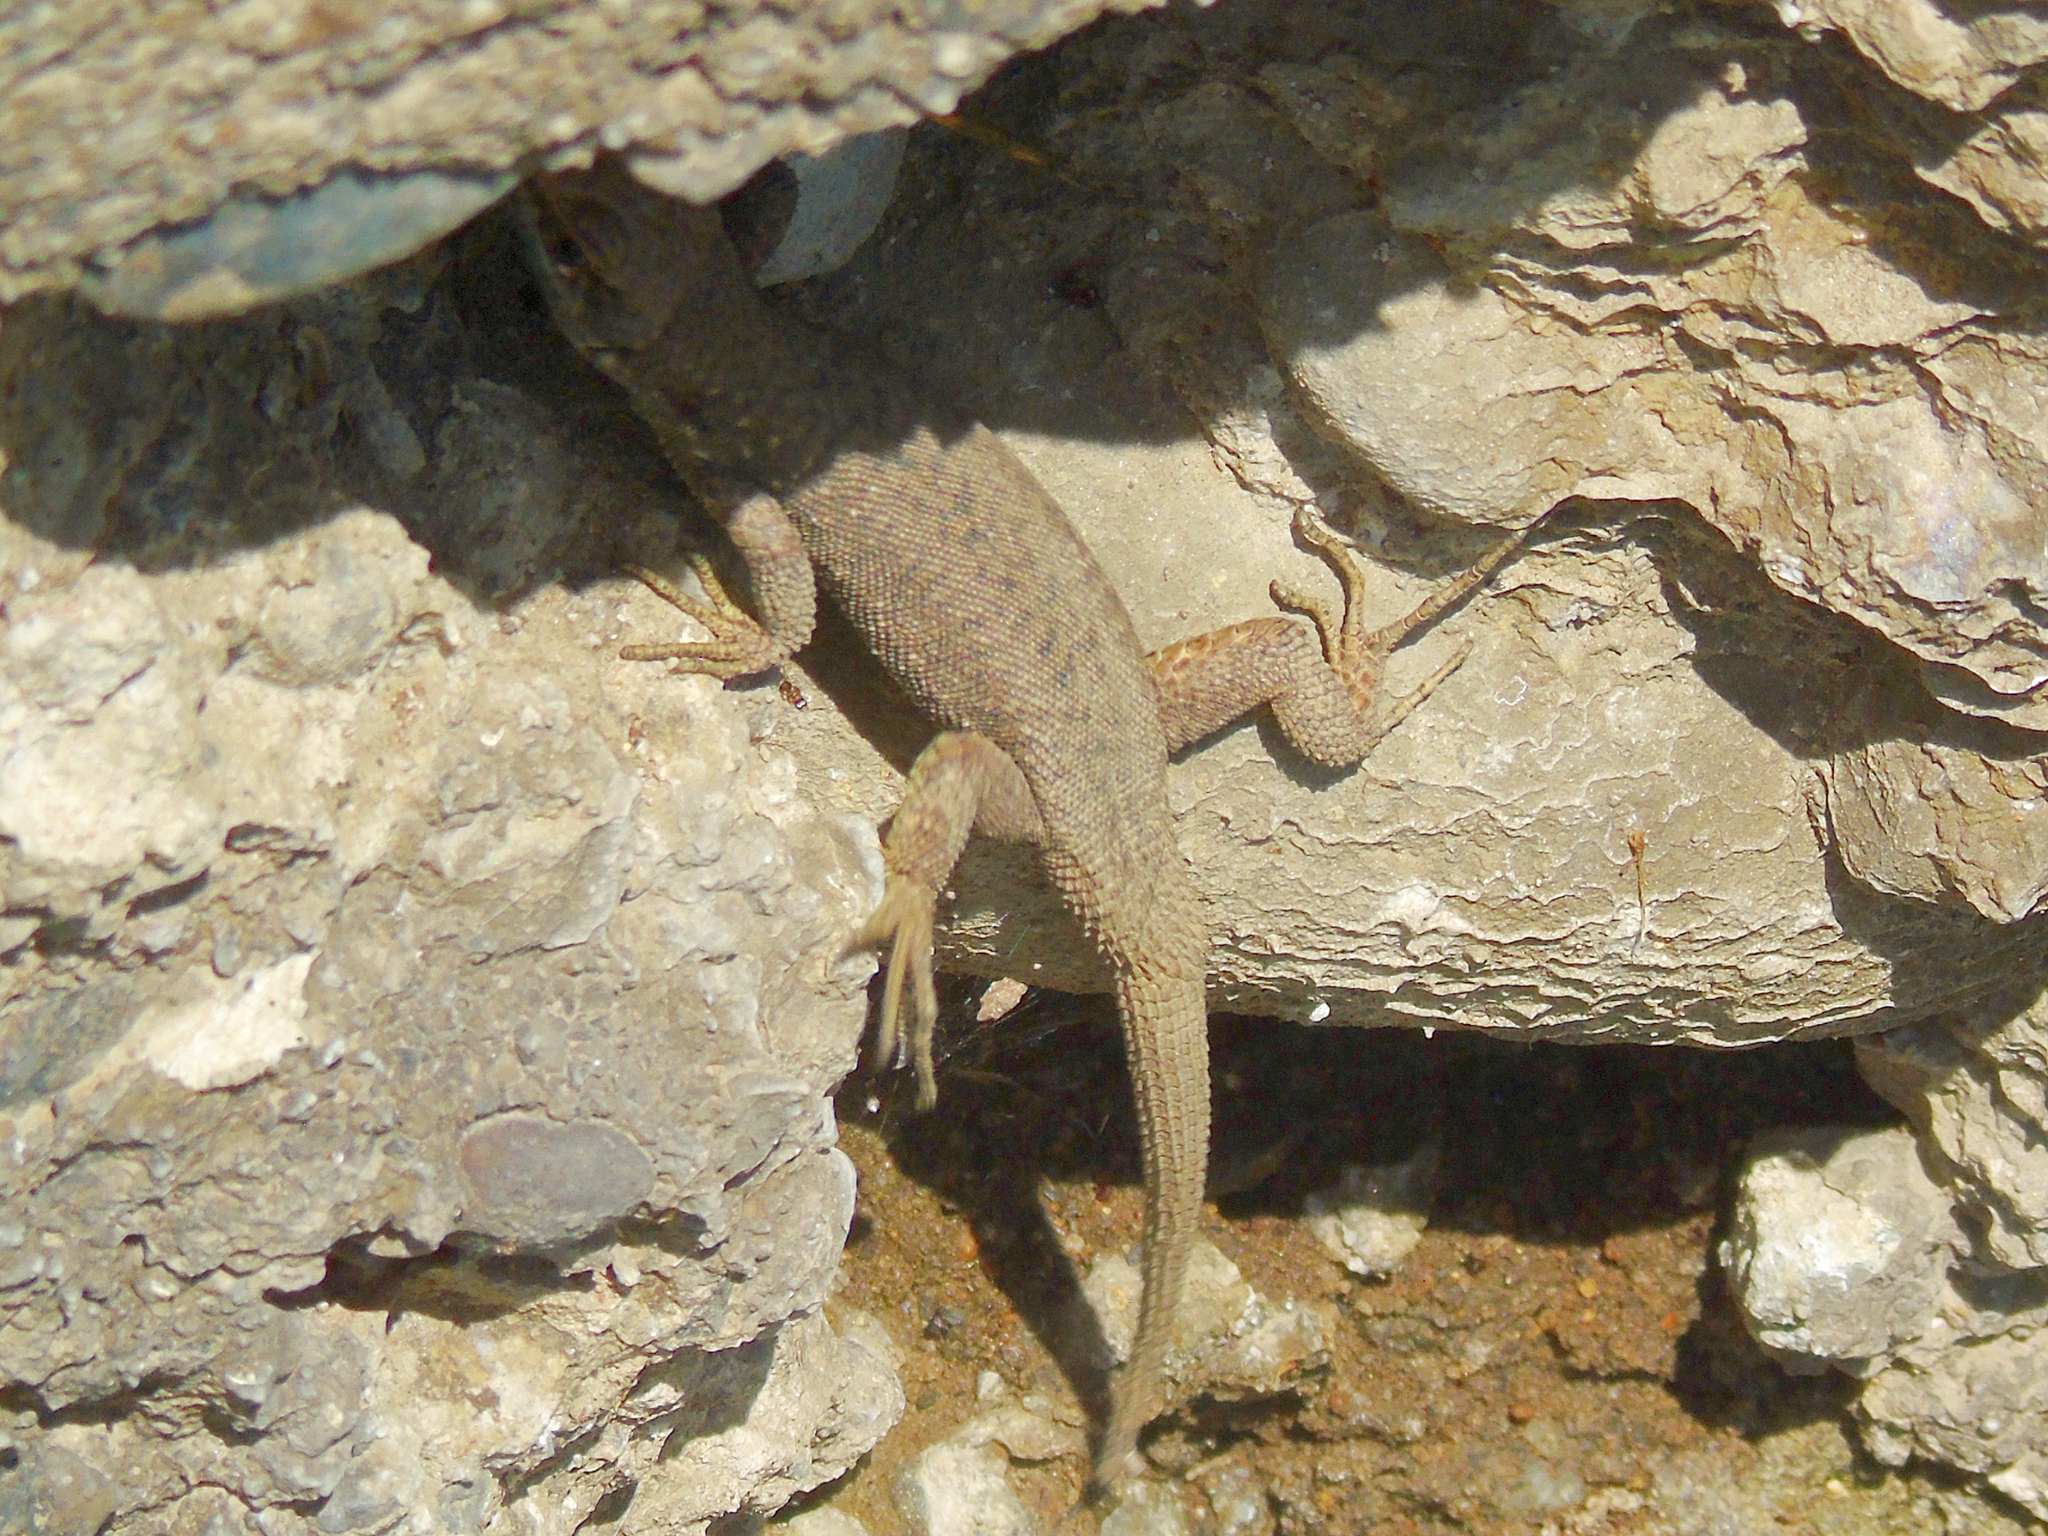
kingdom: Animalia
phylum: Chordata
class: Squamata
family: Lacertidae
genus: Darevskia
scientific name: Darevskia brauneri
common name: Brauner's rock lizard
